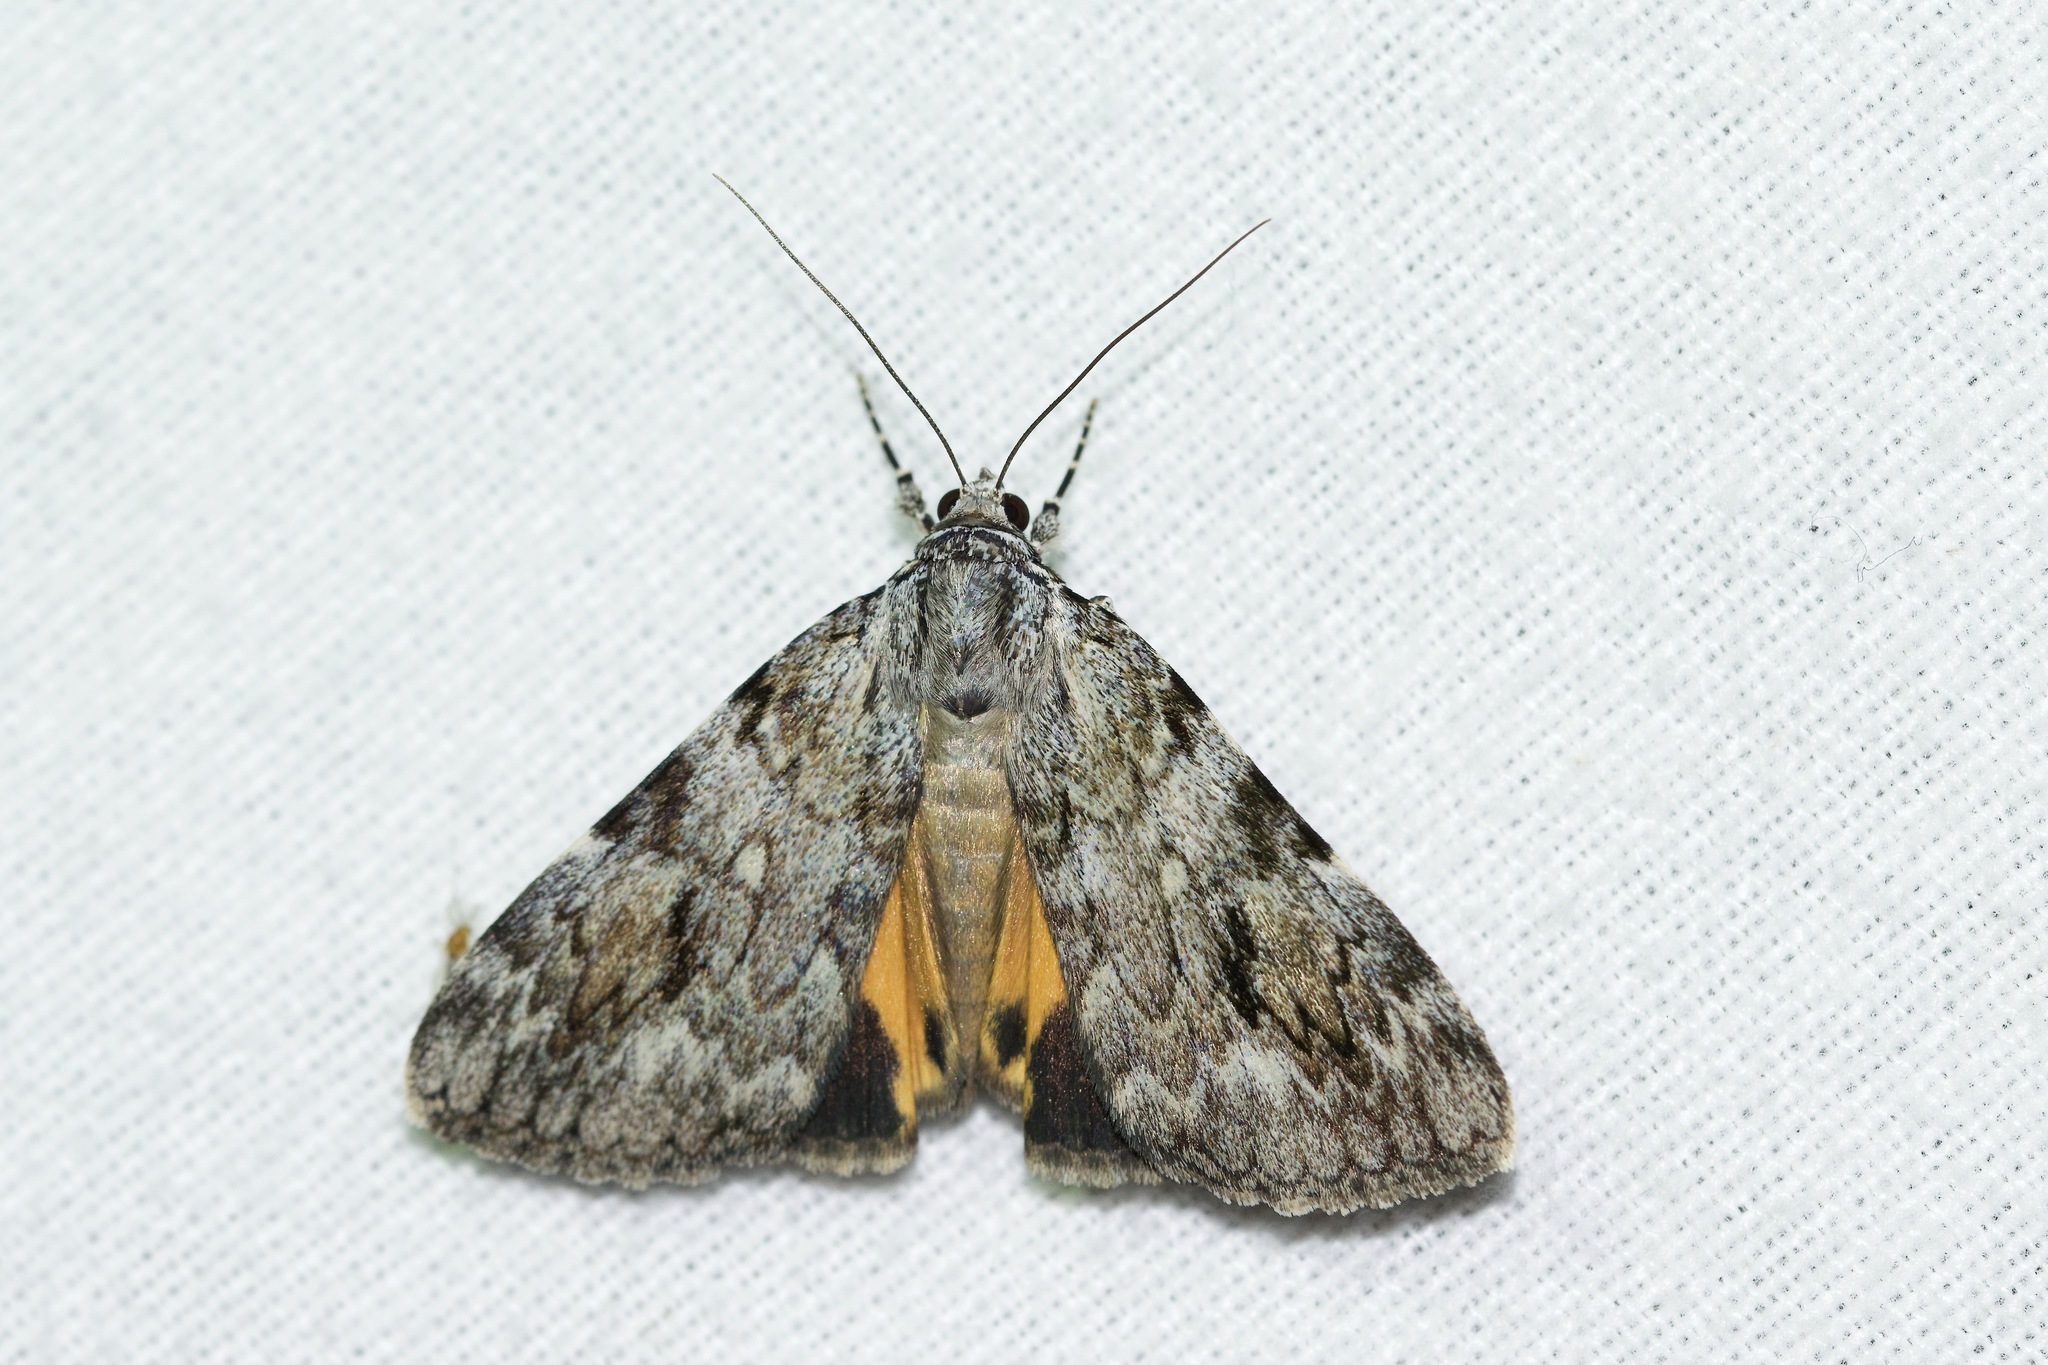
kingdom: Animalia
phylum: Arthropoda
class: Insecta
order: Lepidoptera
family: Erebidae
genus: Catocala
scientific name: Catocala amica
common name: Girlfriend underwing
